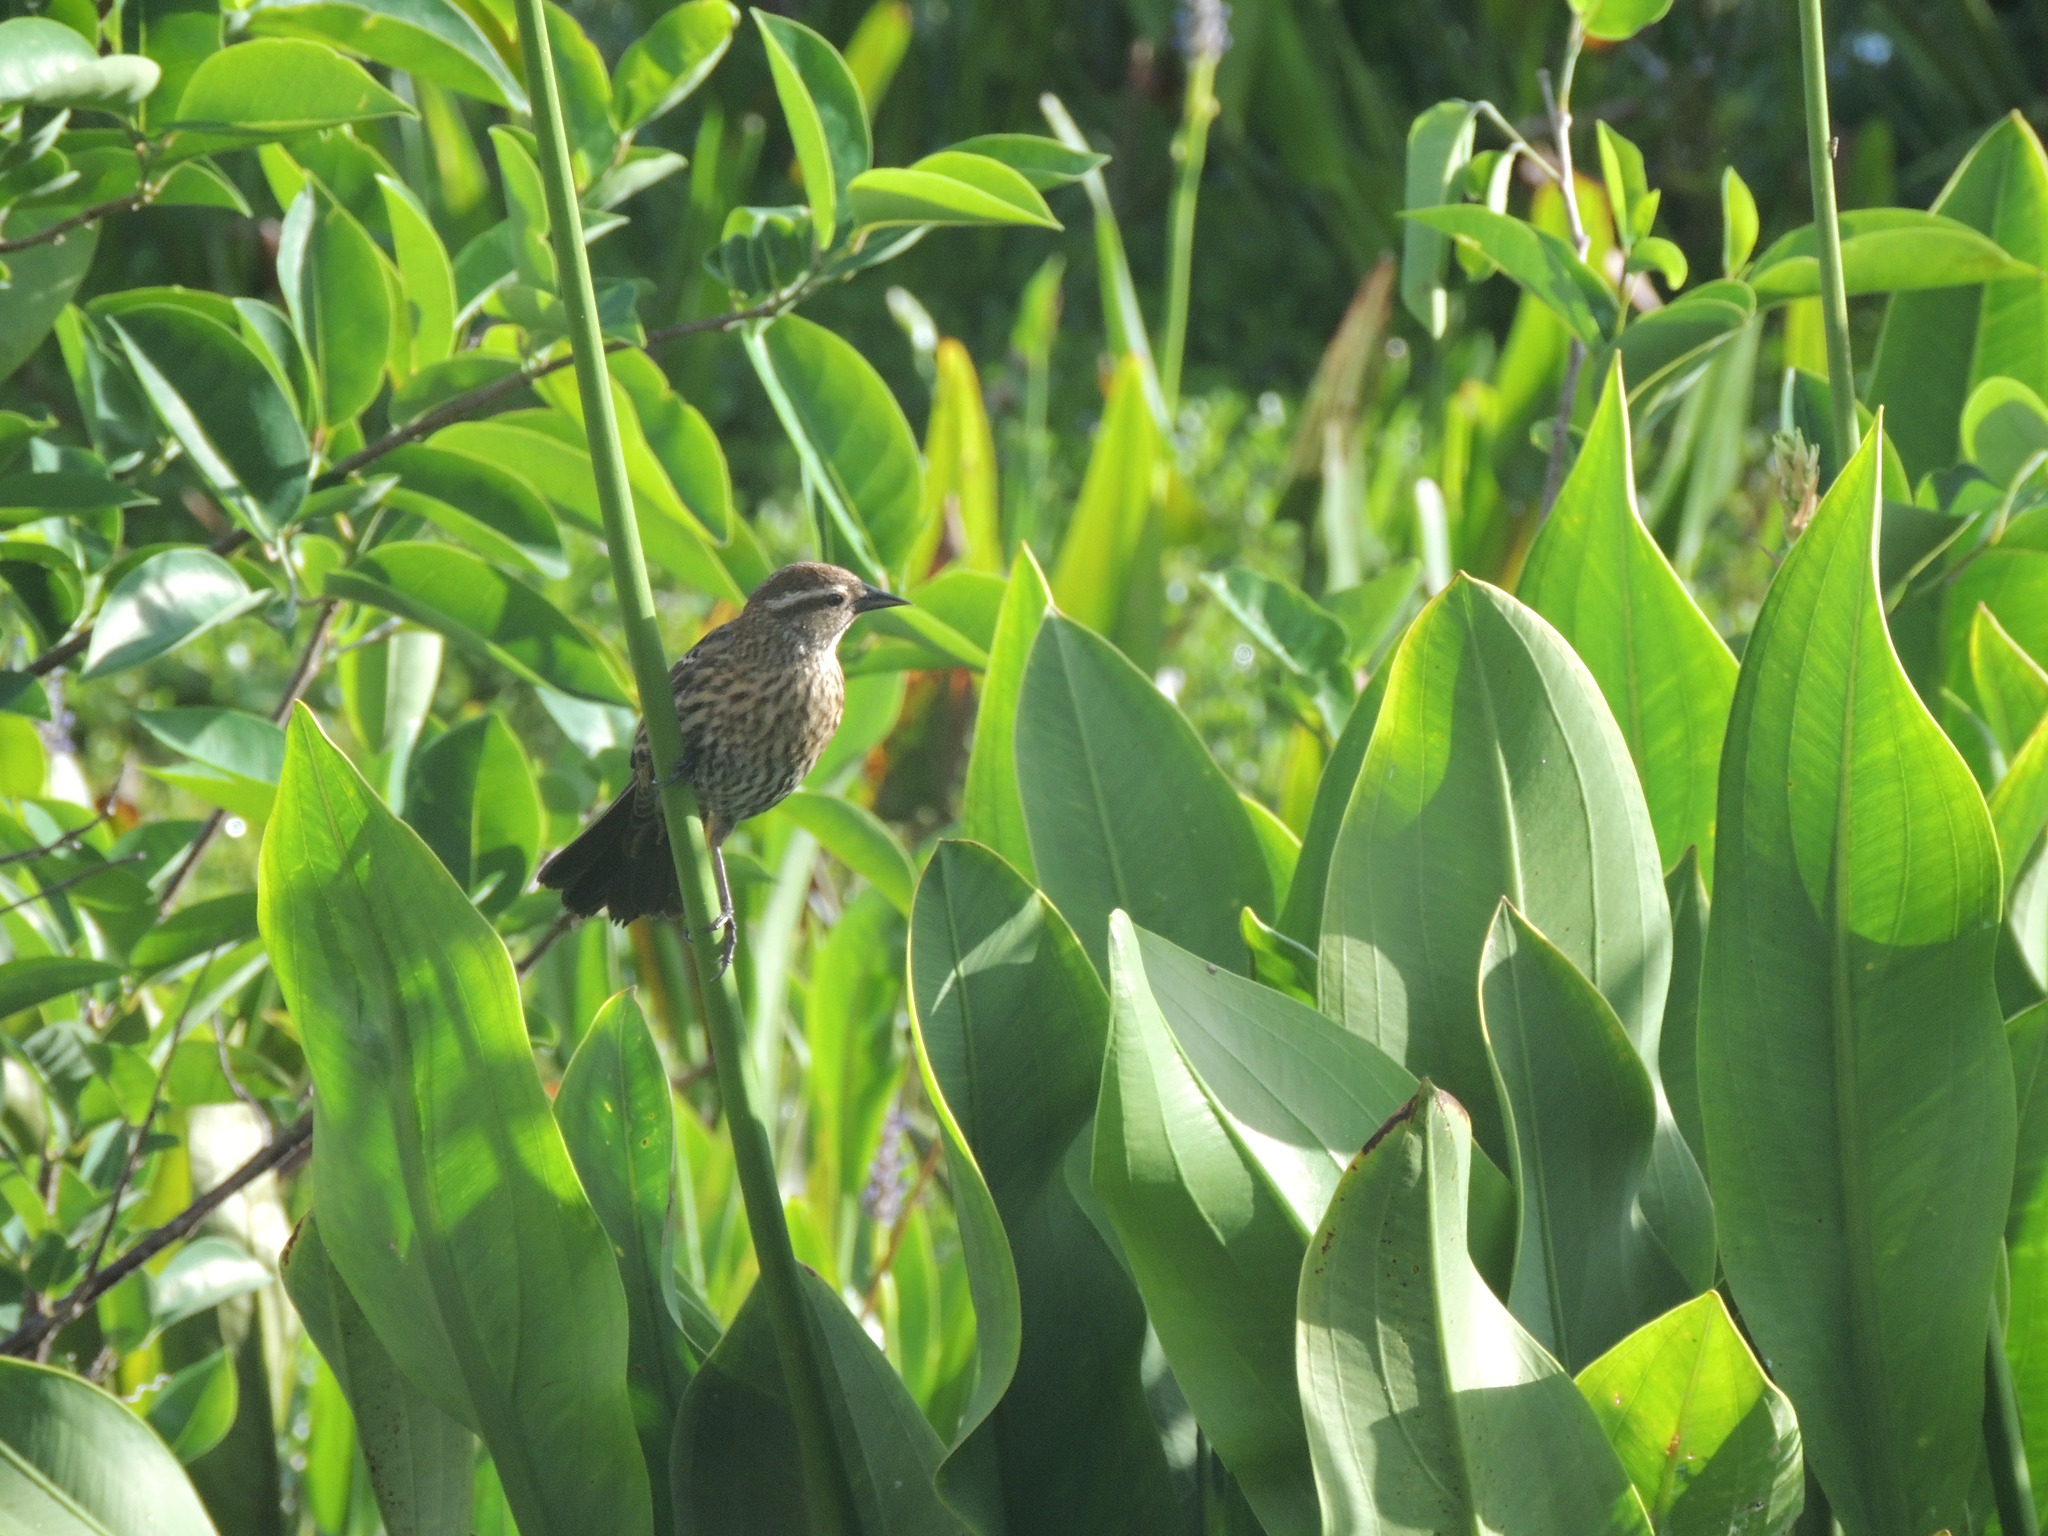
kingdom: Animalia
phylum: Chordata
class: Aves
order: Passeriformes
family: Icteridae
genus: Agelaius
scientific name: Agelaius phoeniceus
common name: Red-winged blackbird
